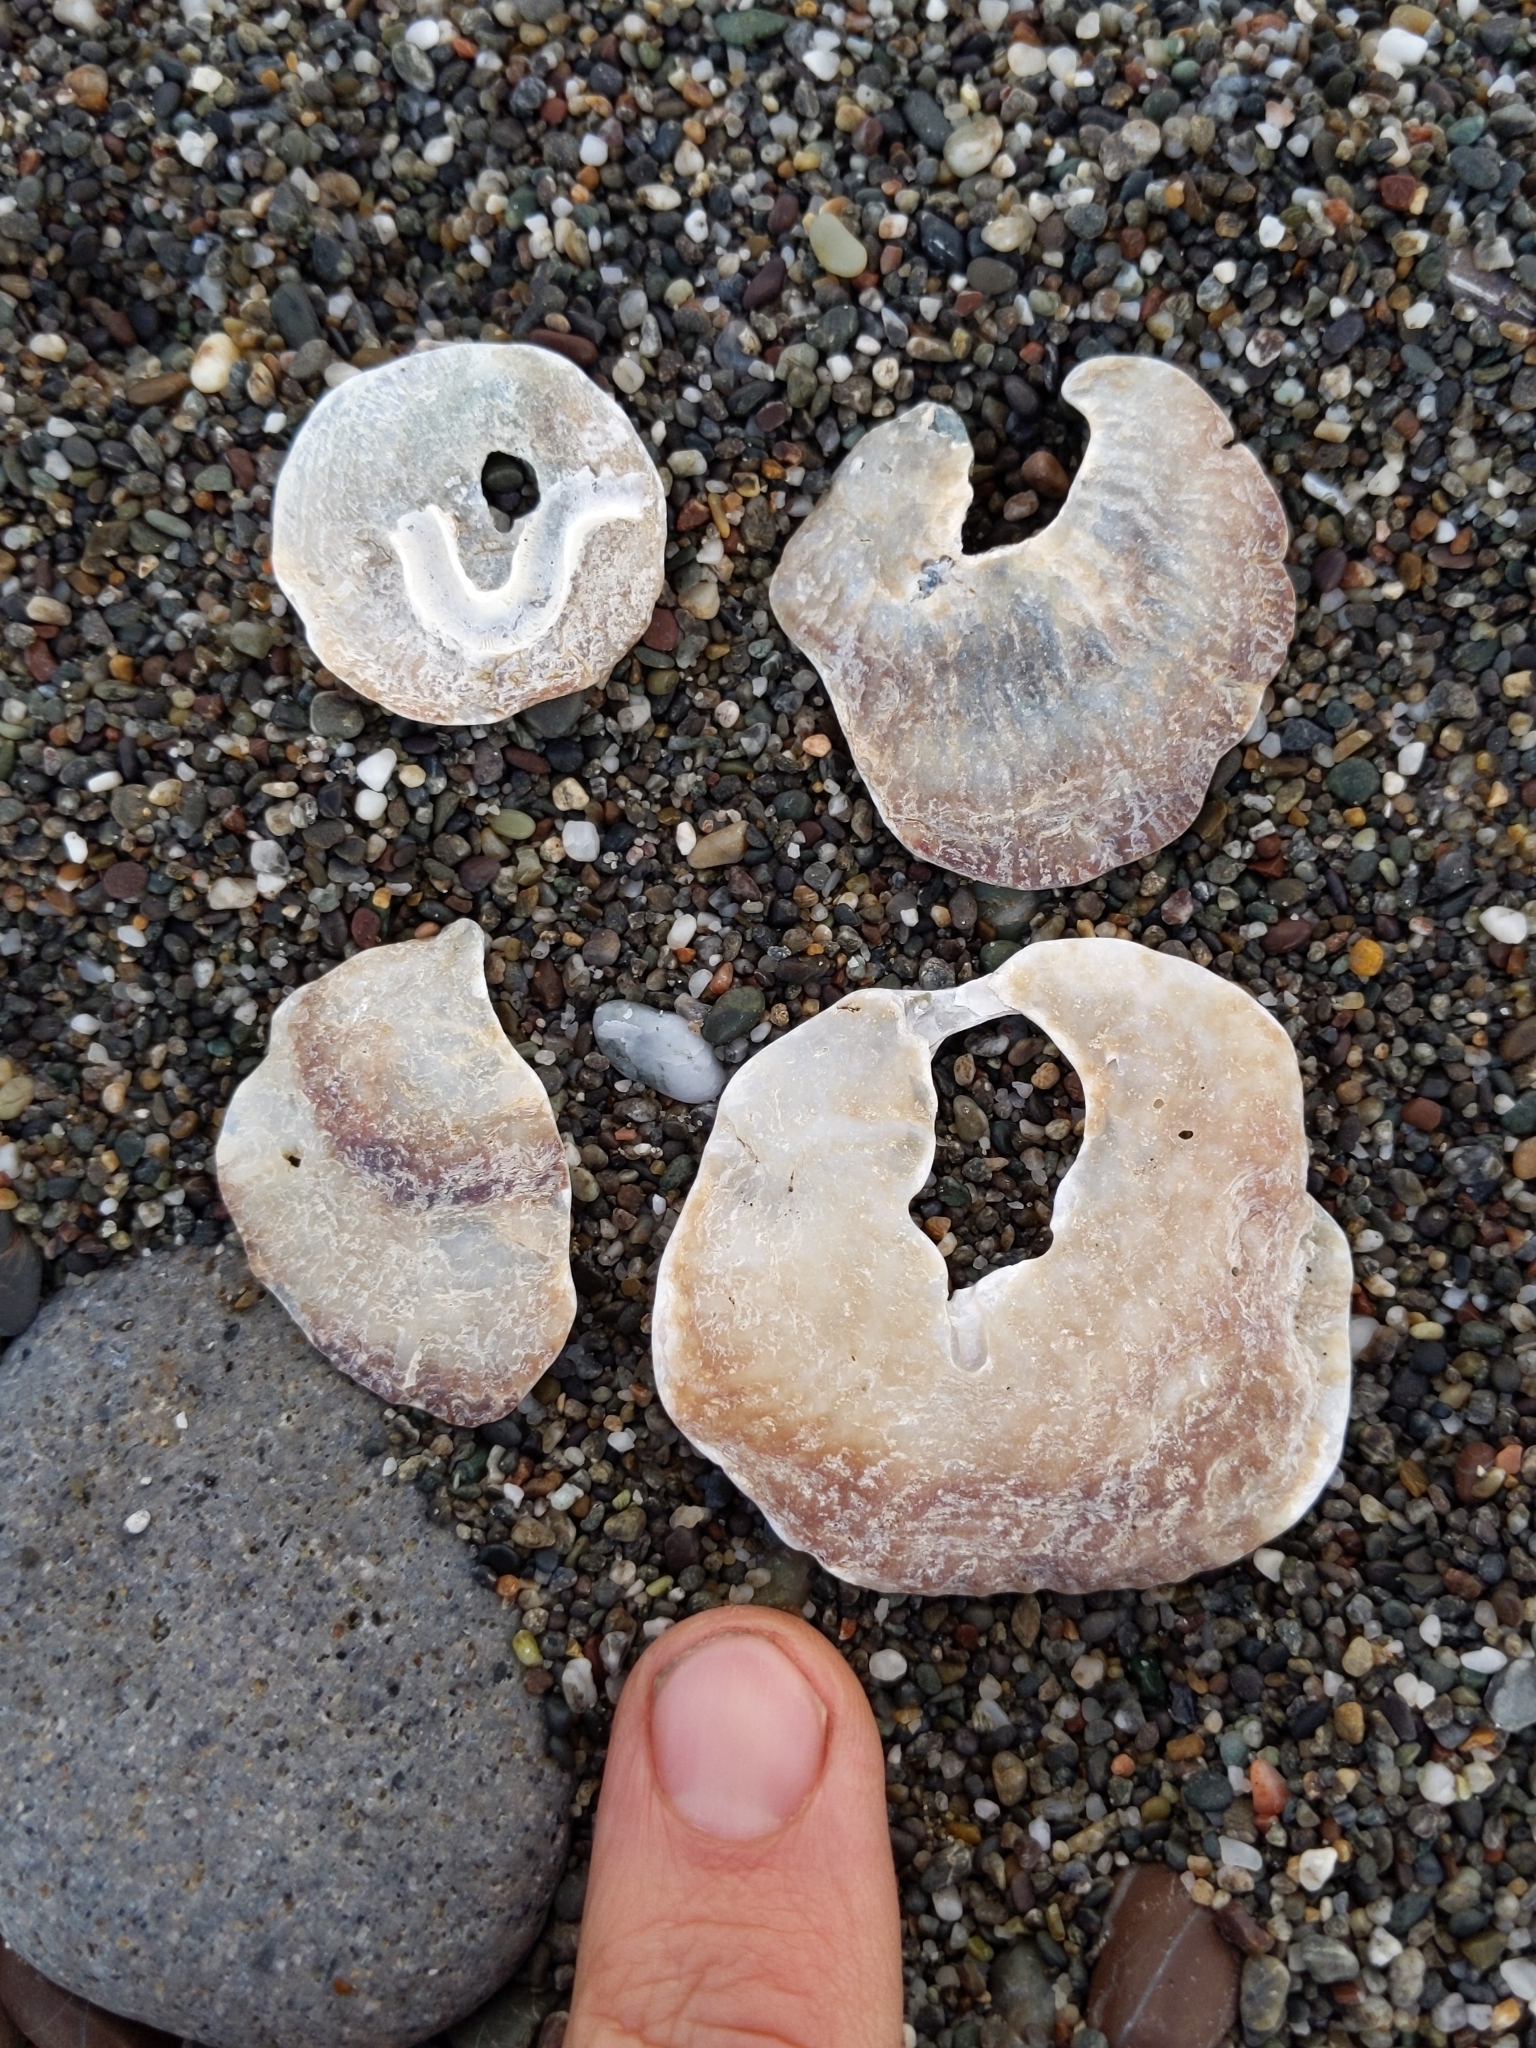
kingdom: Animalia
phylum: Mollusca
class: Bivalvia
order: Pectinida
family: Anomiidae
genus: Pododesmus
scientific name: Pododesmus macrochisma
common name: Alaska jingle
